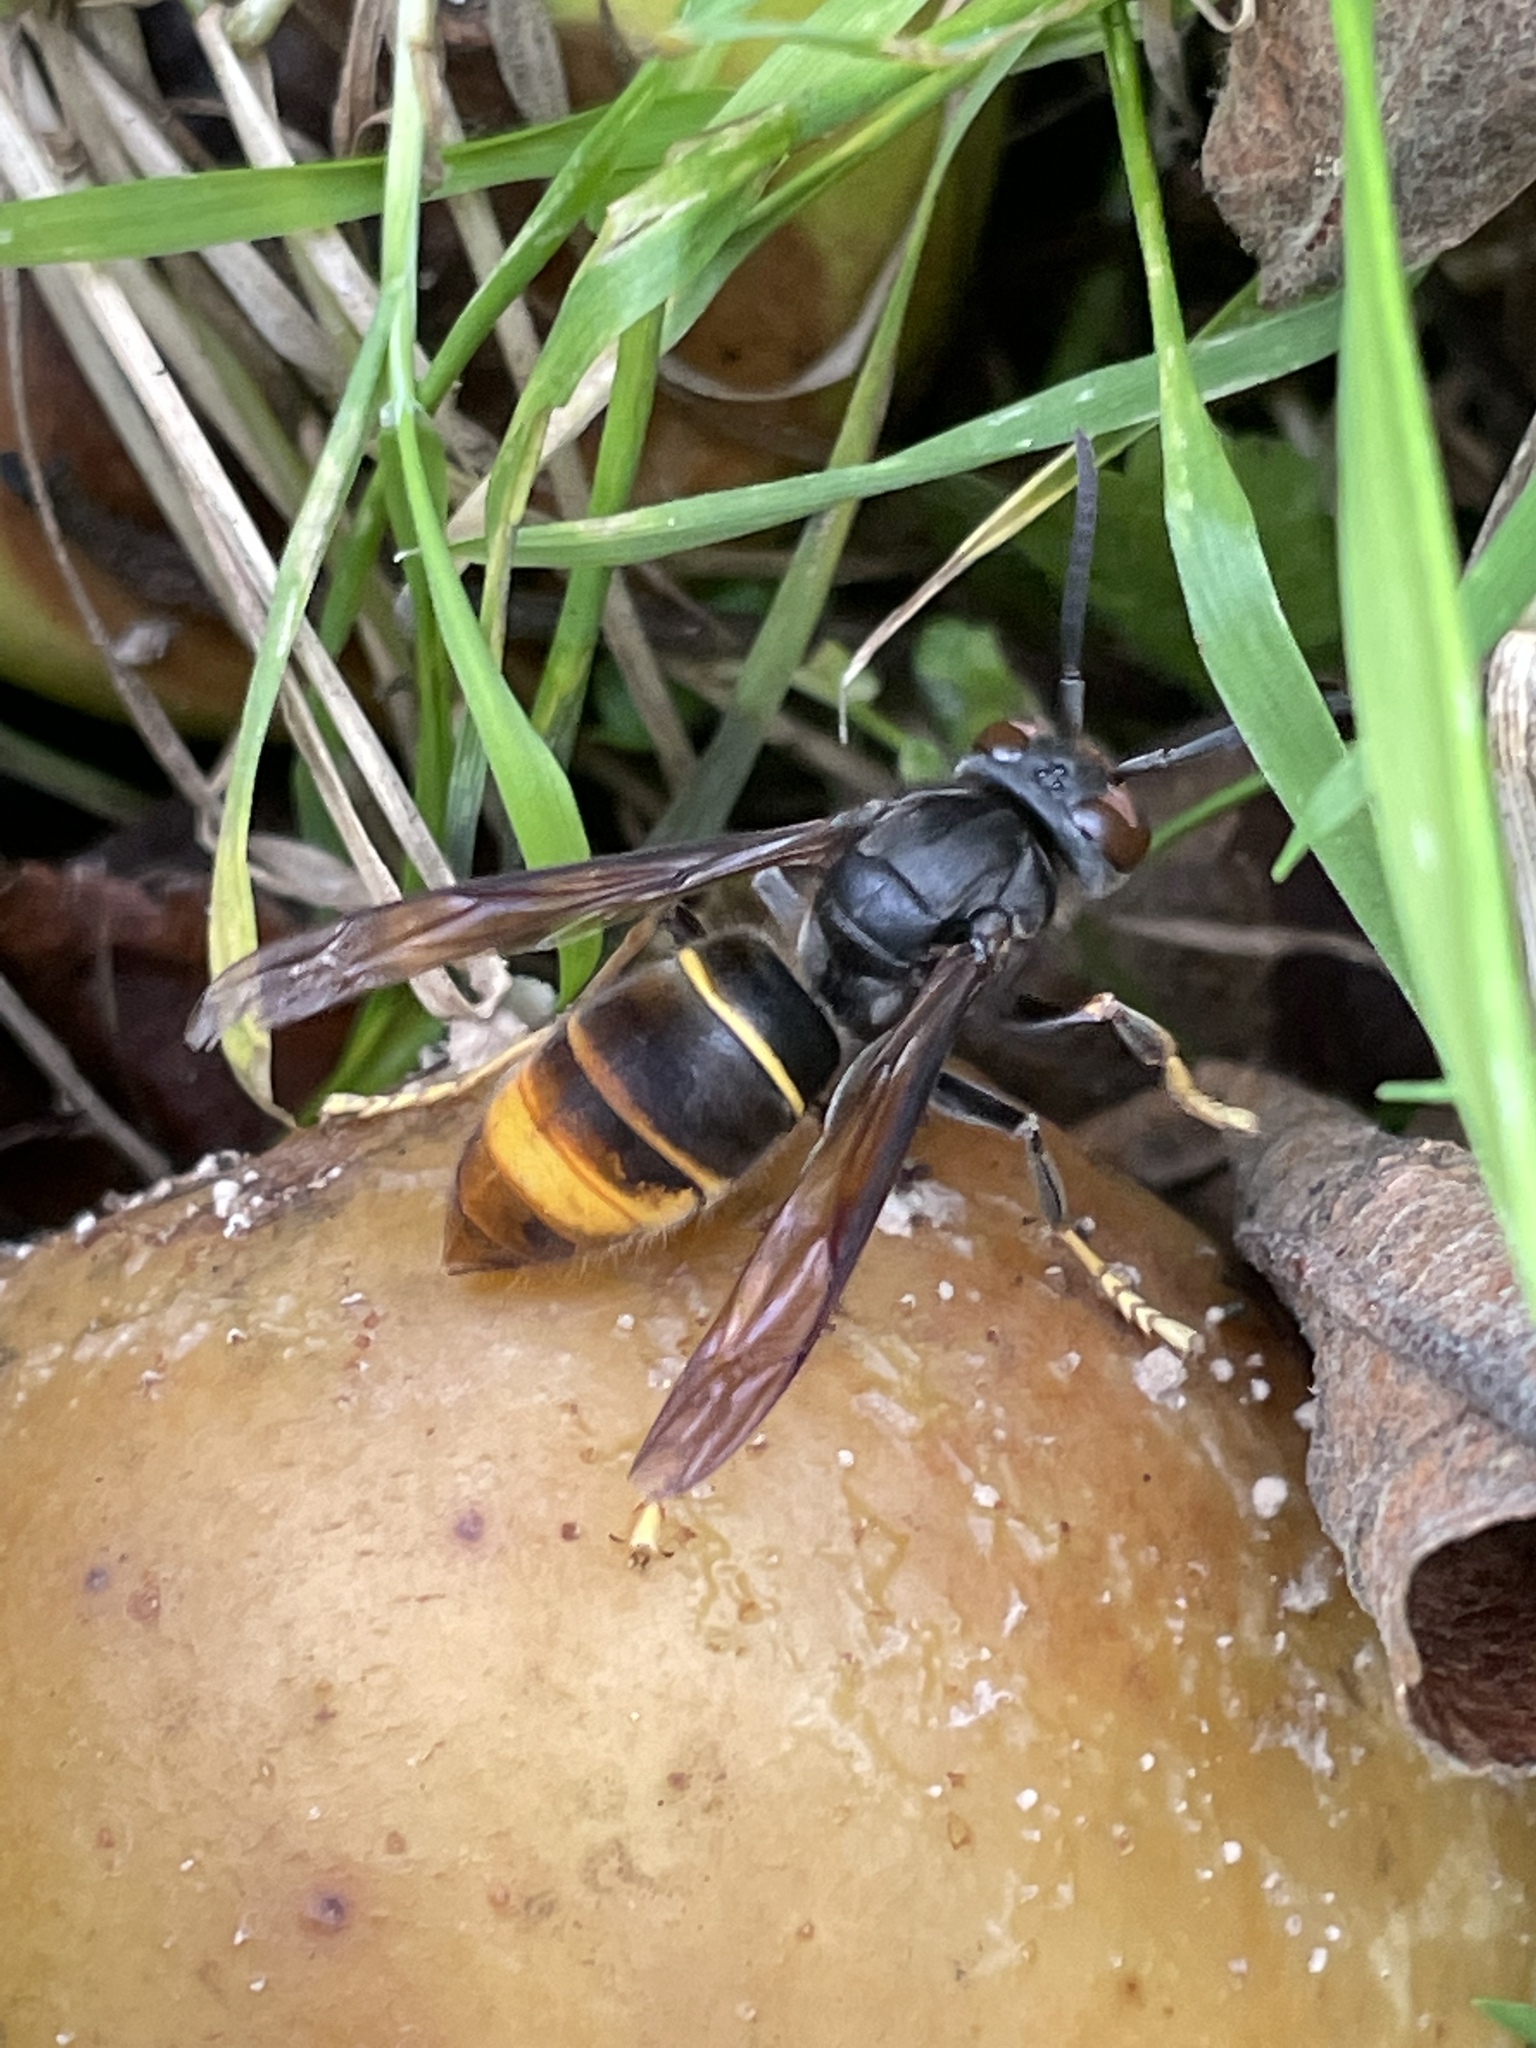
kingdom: Animalia
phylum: Arthropoda
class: Insecta
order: Hymenoptera
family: Vespidae
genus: Vespa
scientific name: Vespa velutina
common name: Asian hornet
